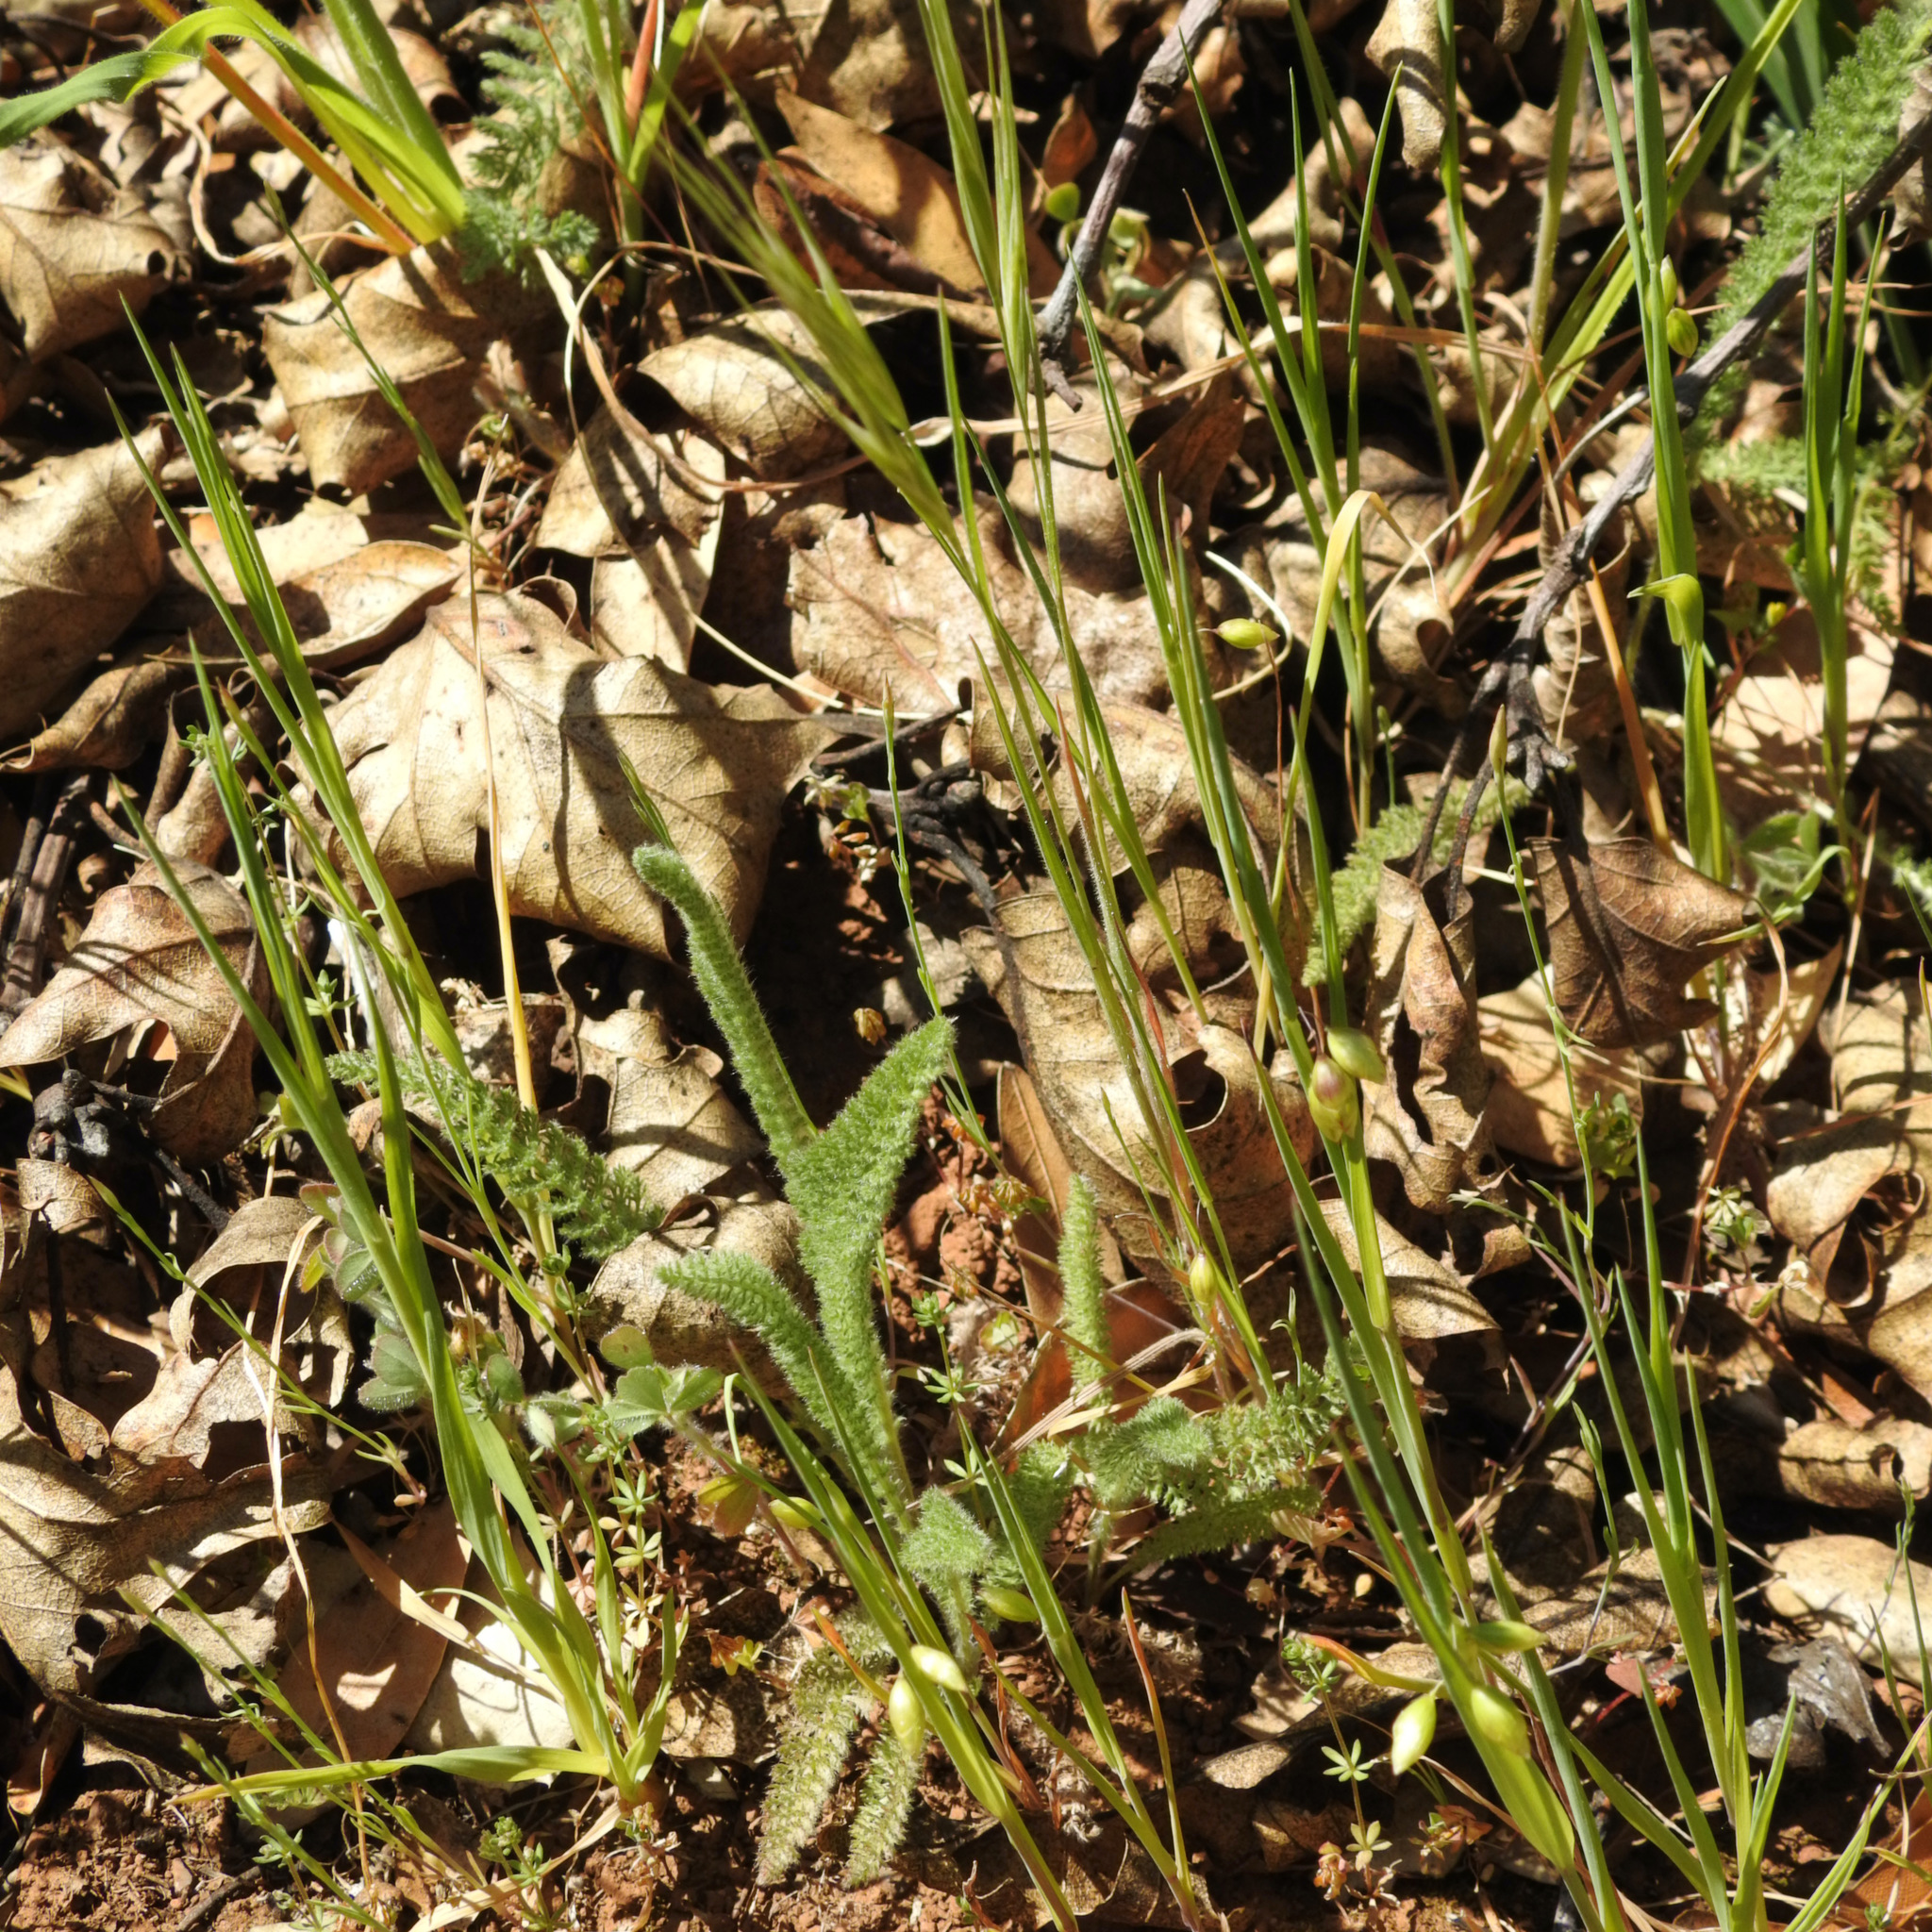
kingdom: Plantae
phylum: Tracheophyta
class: Magnoliopsida
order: Asterales
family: Asteraceae
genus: Achillea
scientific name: Achillea millefolium
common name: Yarrow
